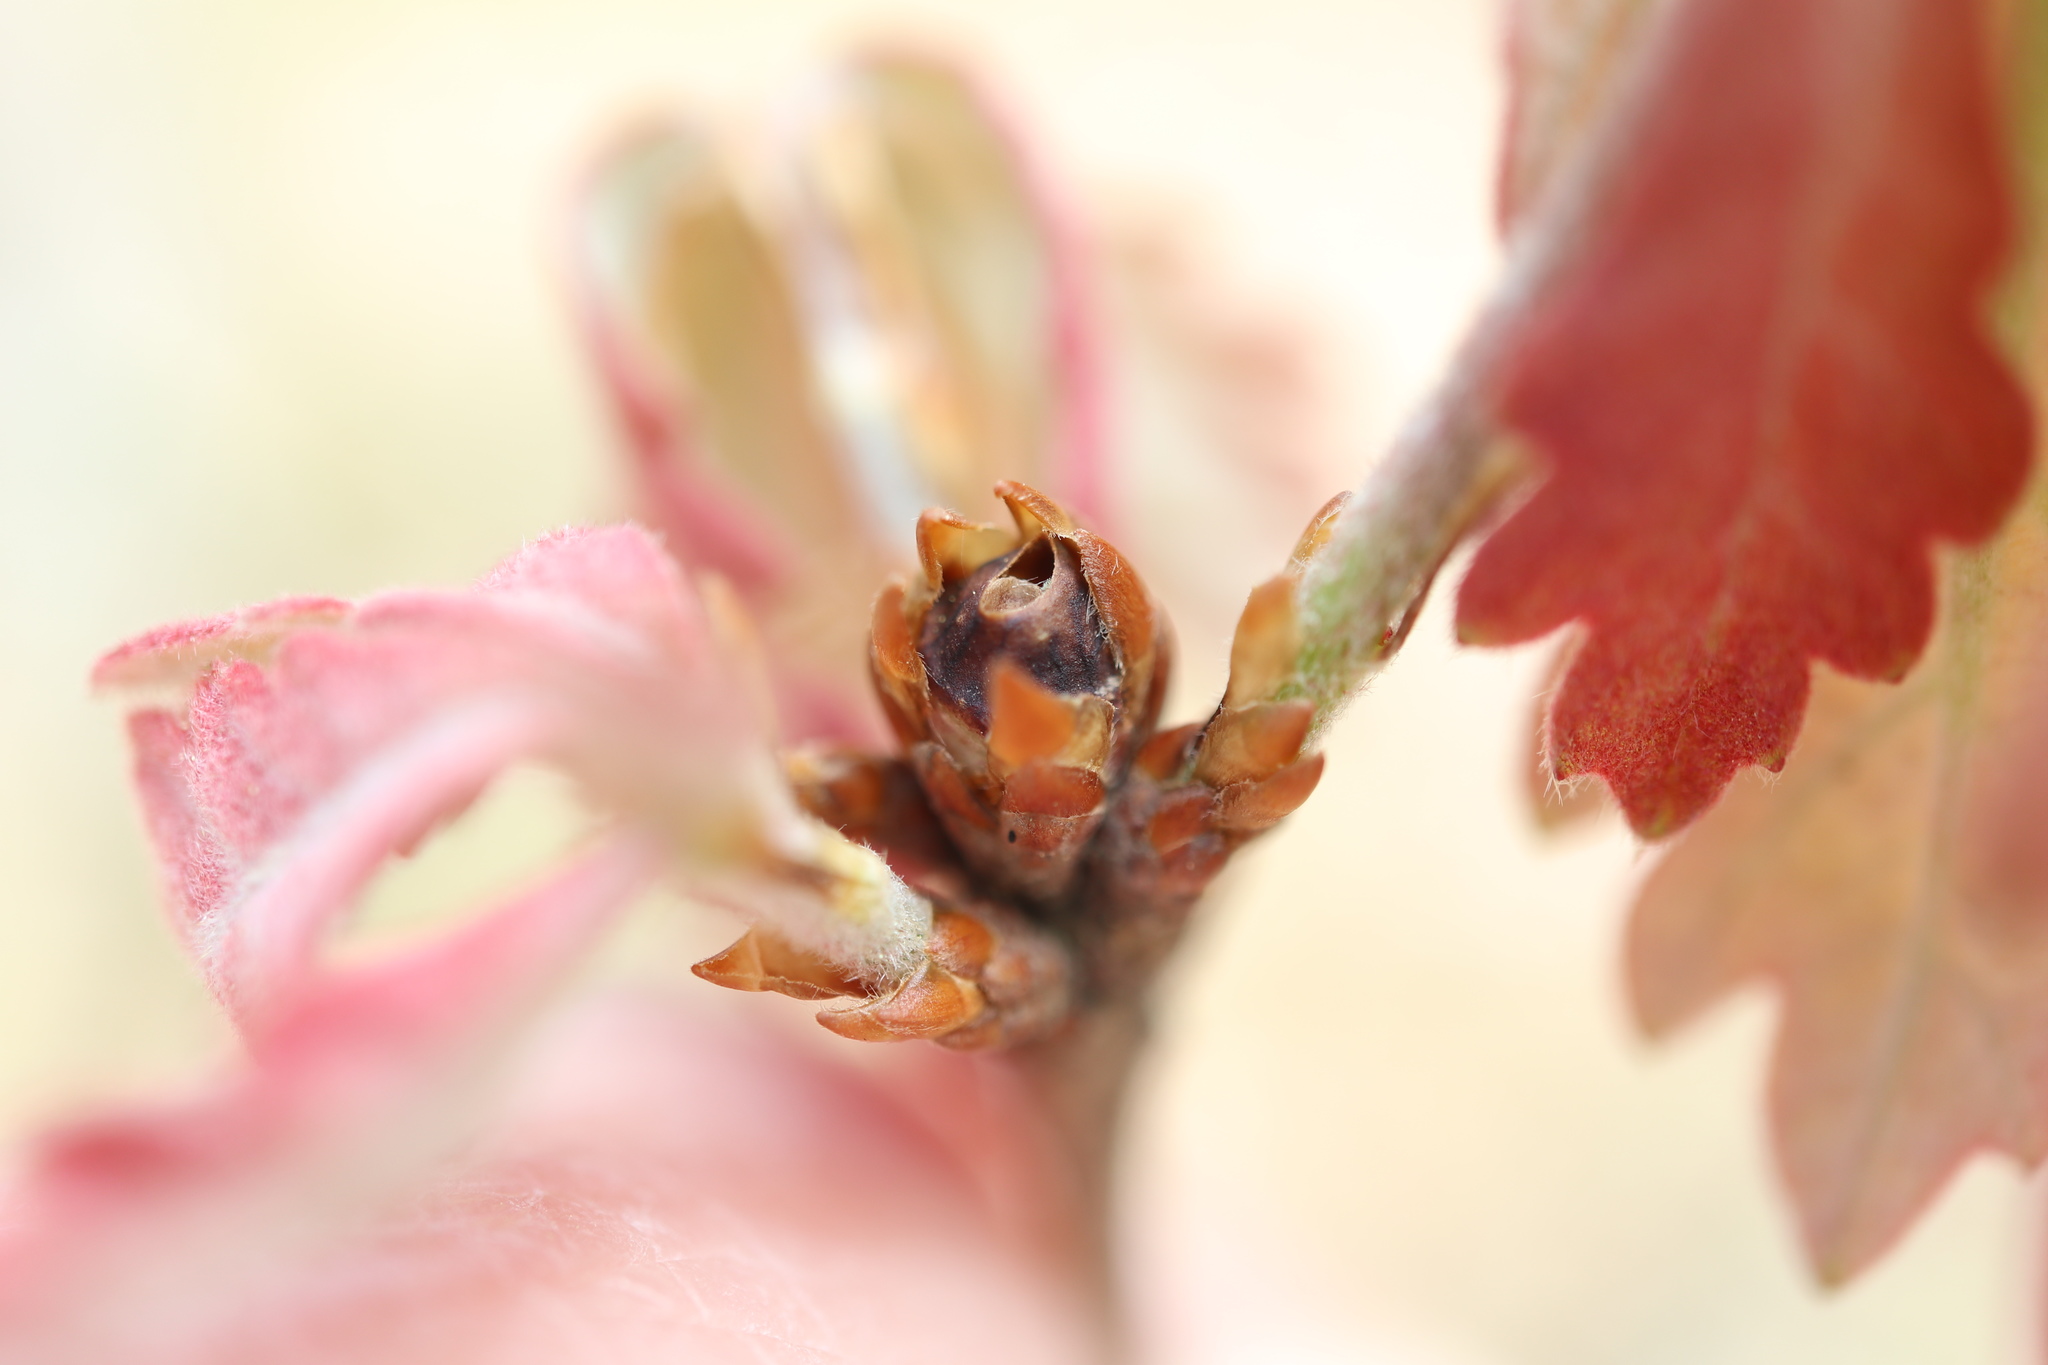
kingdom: Animalia
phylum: Arthropoda
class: Insecta
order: Hymenoptera
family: Cynipidae
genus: Neuroterus
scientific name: Neuroterus
